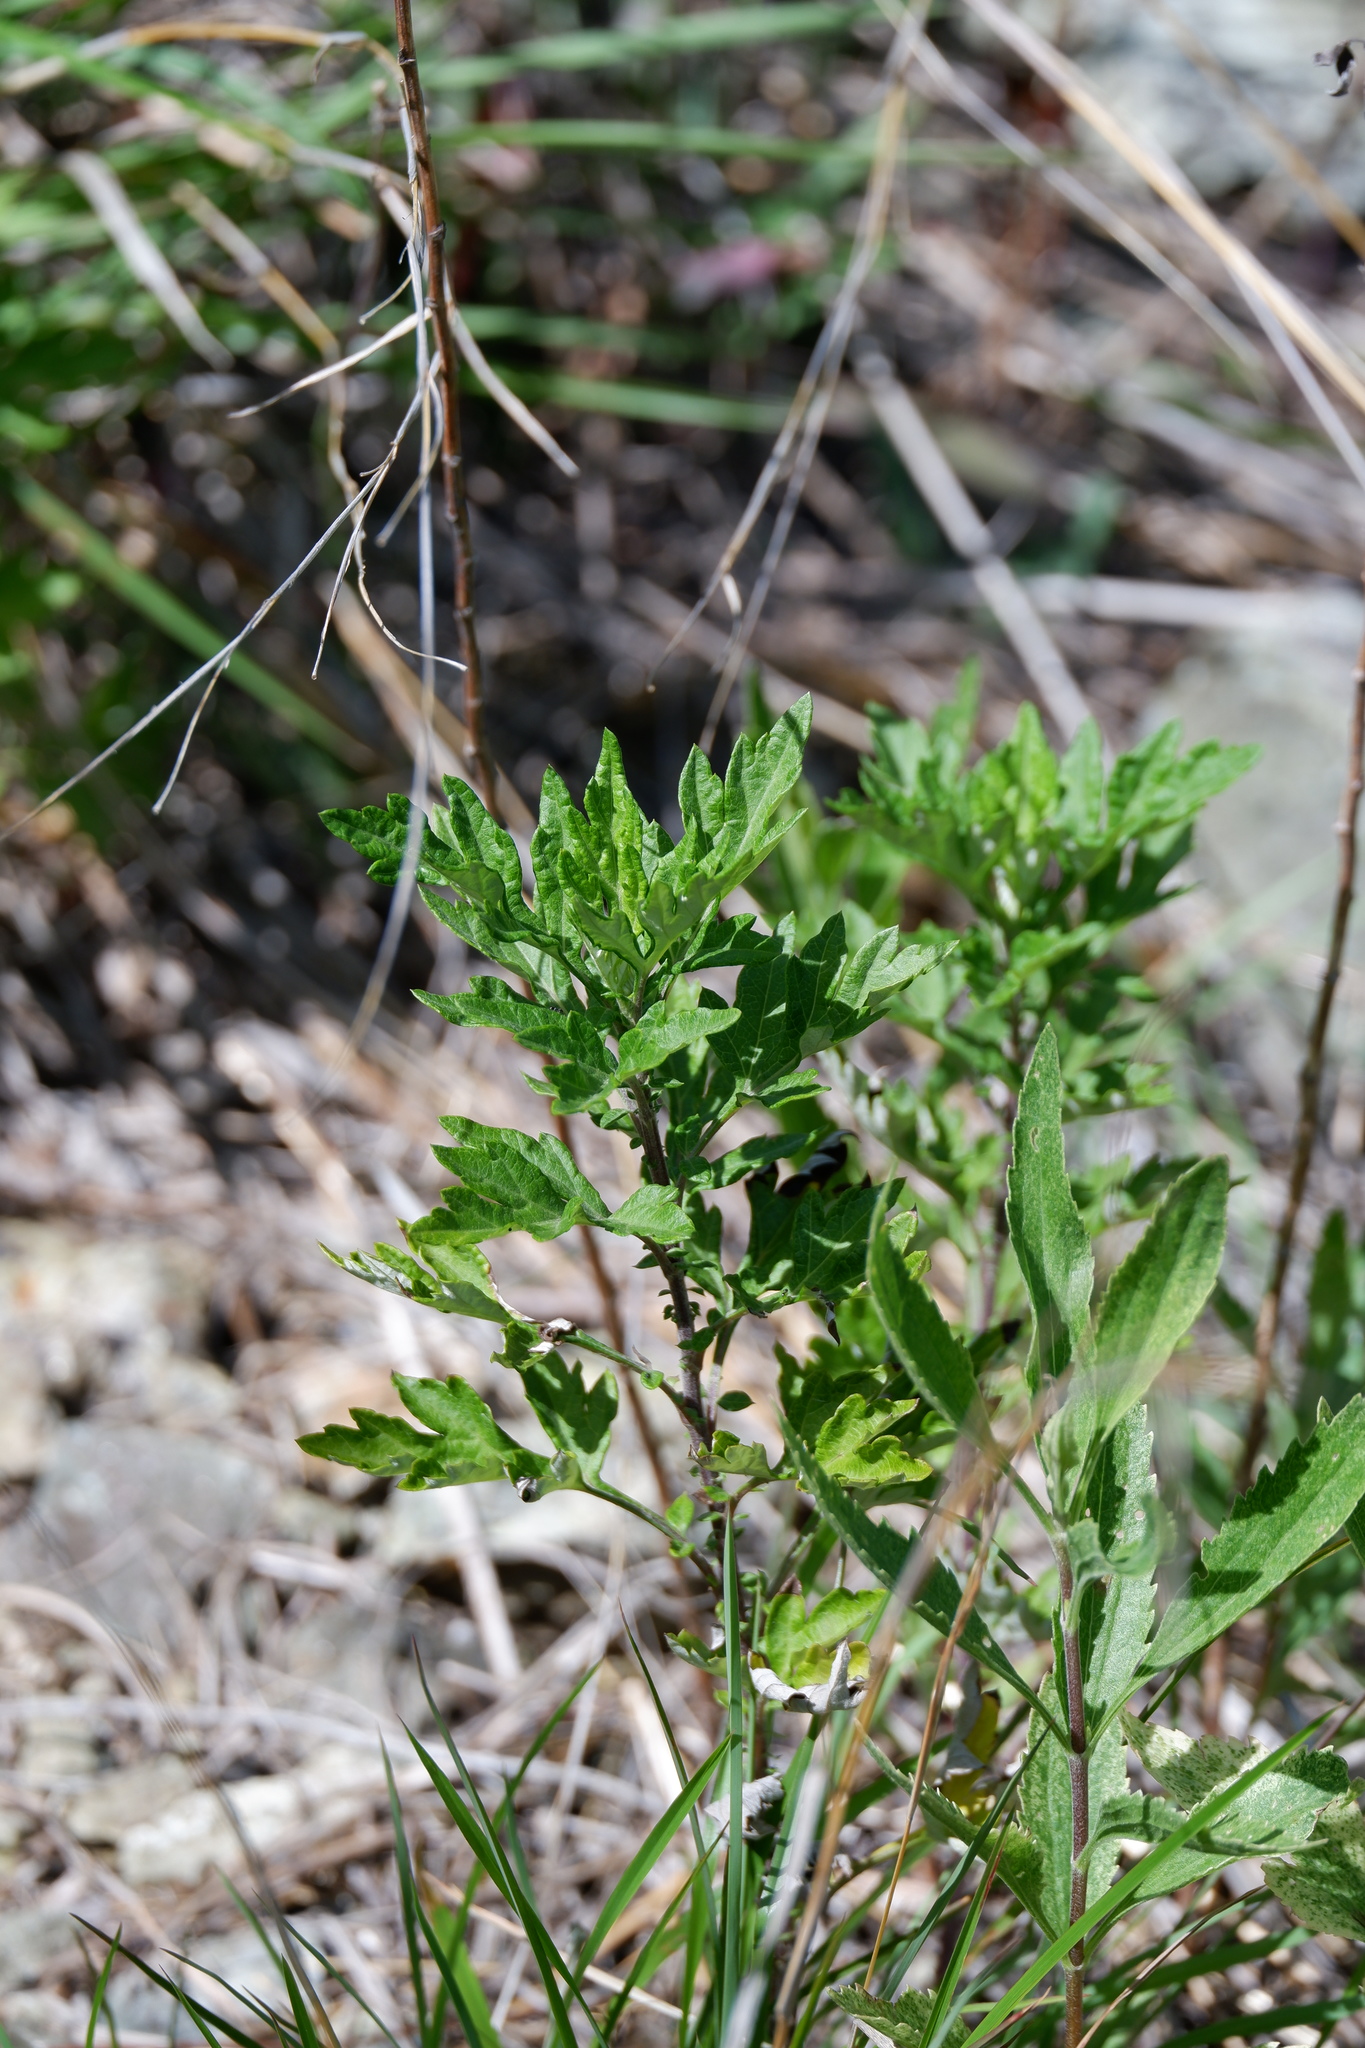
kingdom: Plantae
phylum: Tracheophyta
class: Magnoliopsida
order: Asterales
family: Asteraceae
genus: Artemisia
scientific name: Artemisia vulgaris
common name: Mugwort
